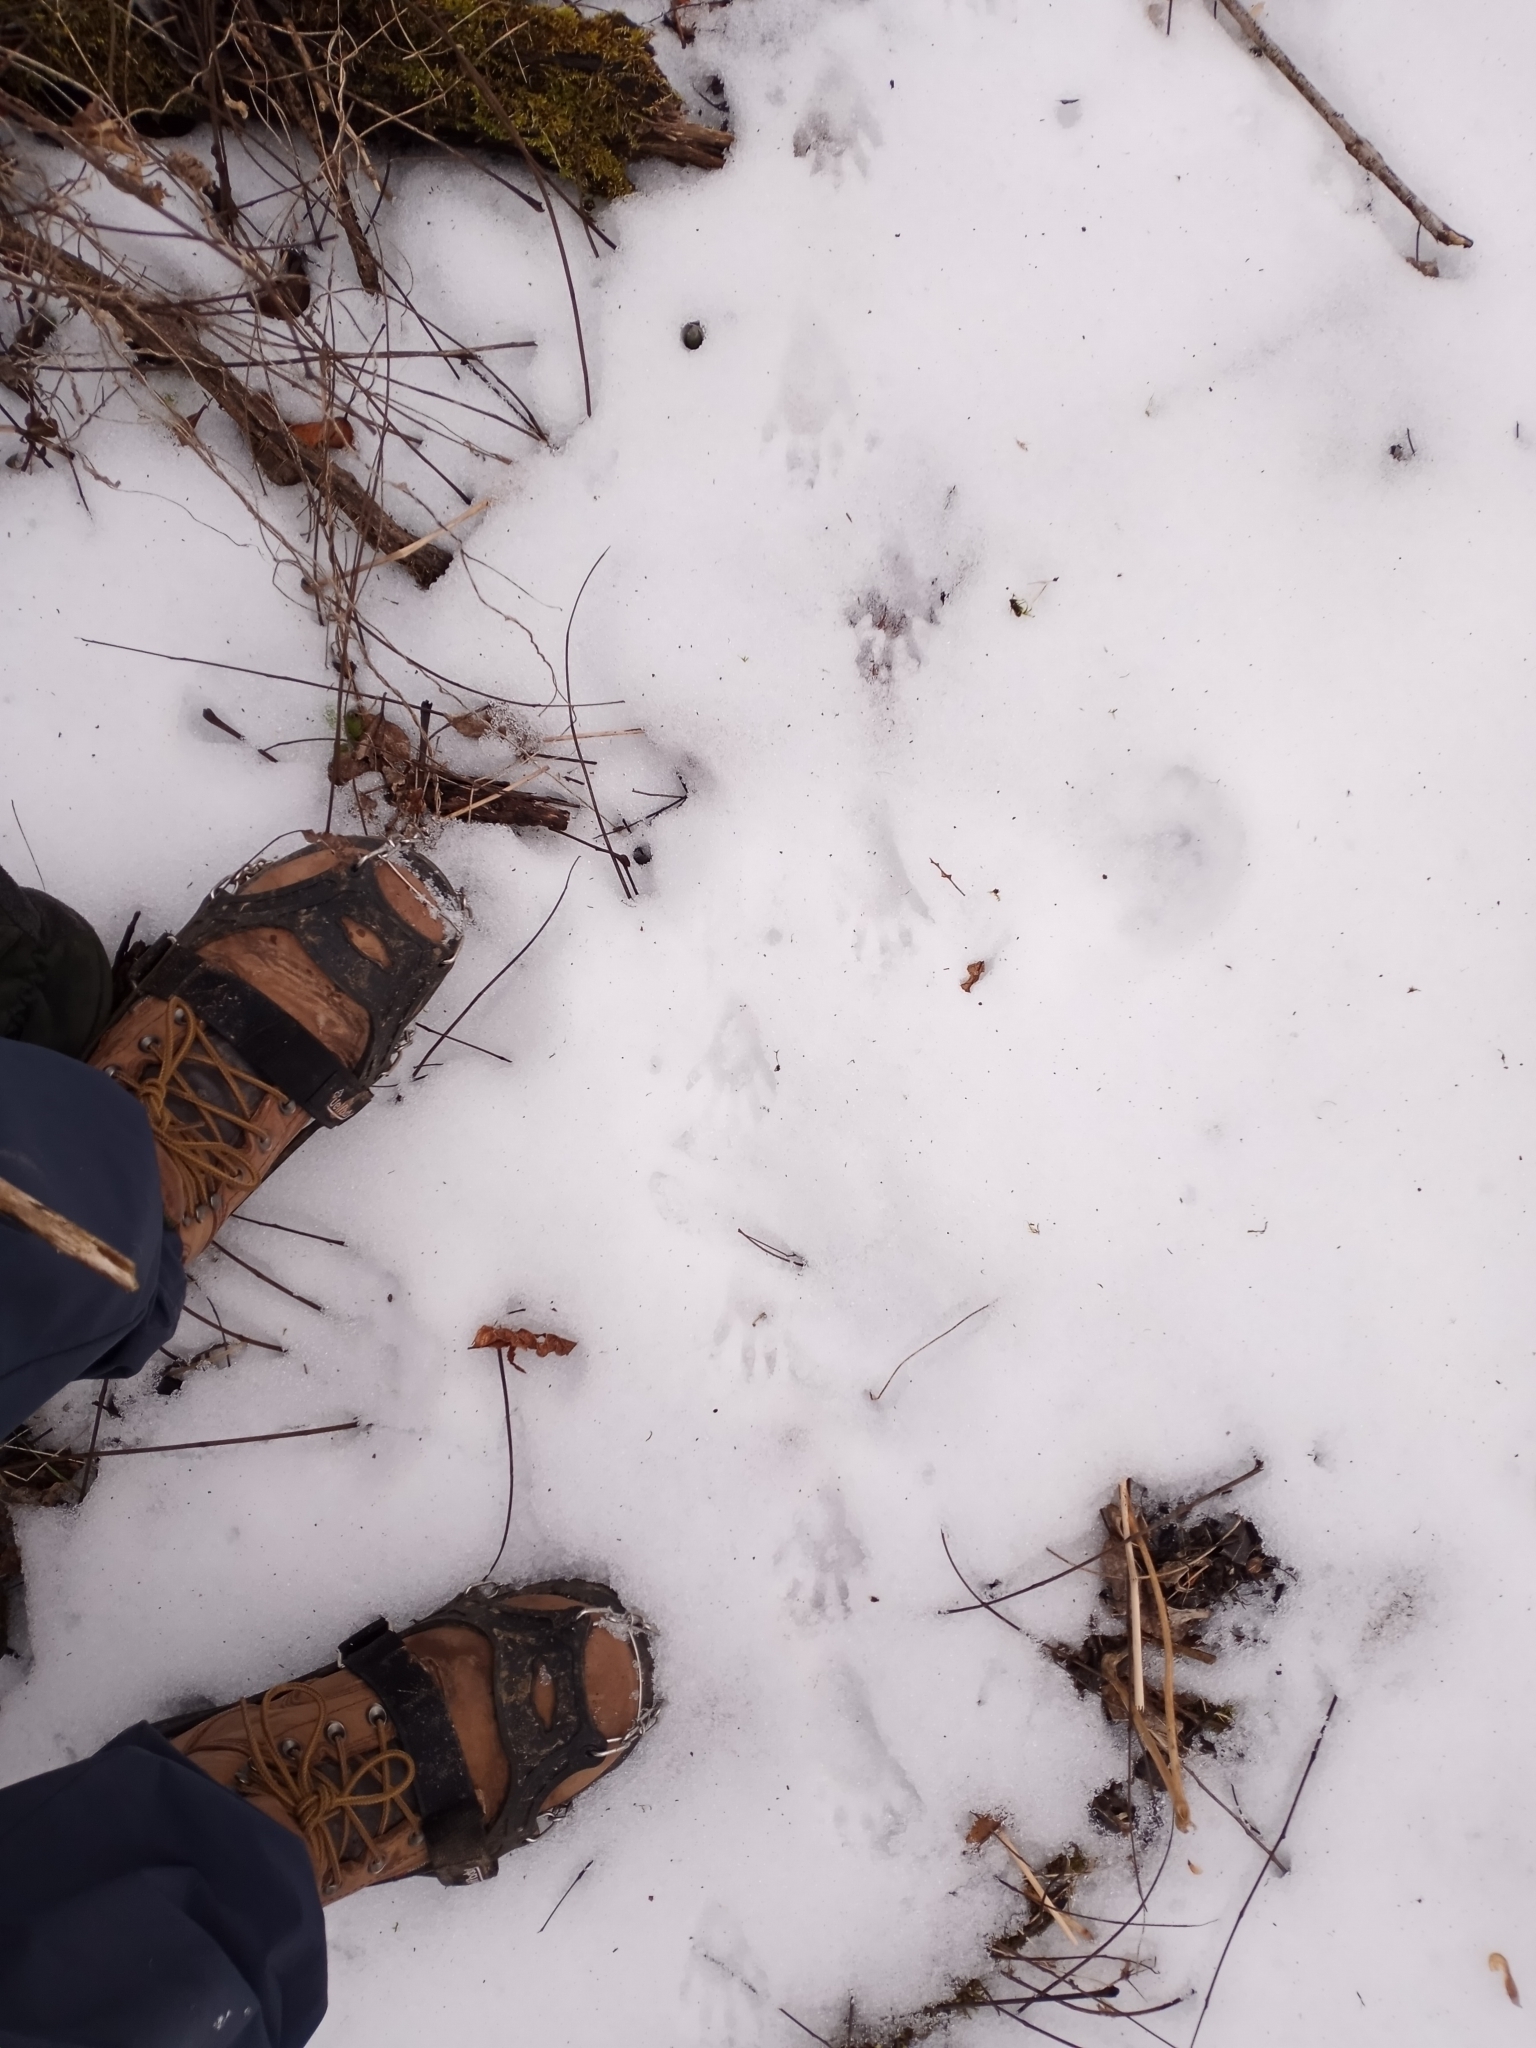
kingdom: Animalia
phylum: Chordata
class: Mammalia
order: Carnivora
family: Procyonidae
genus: Procyon
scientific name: Procyon lotor
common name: Raccoon
